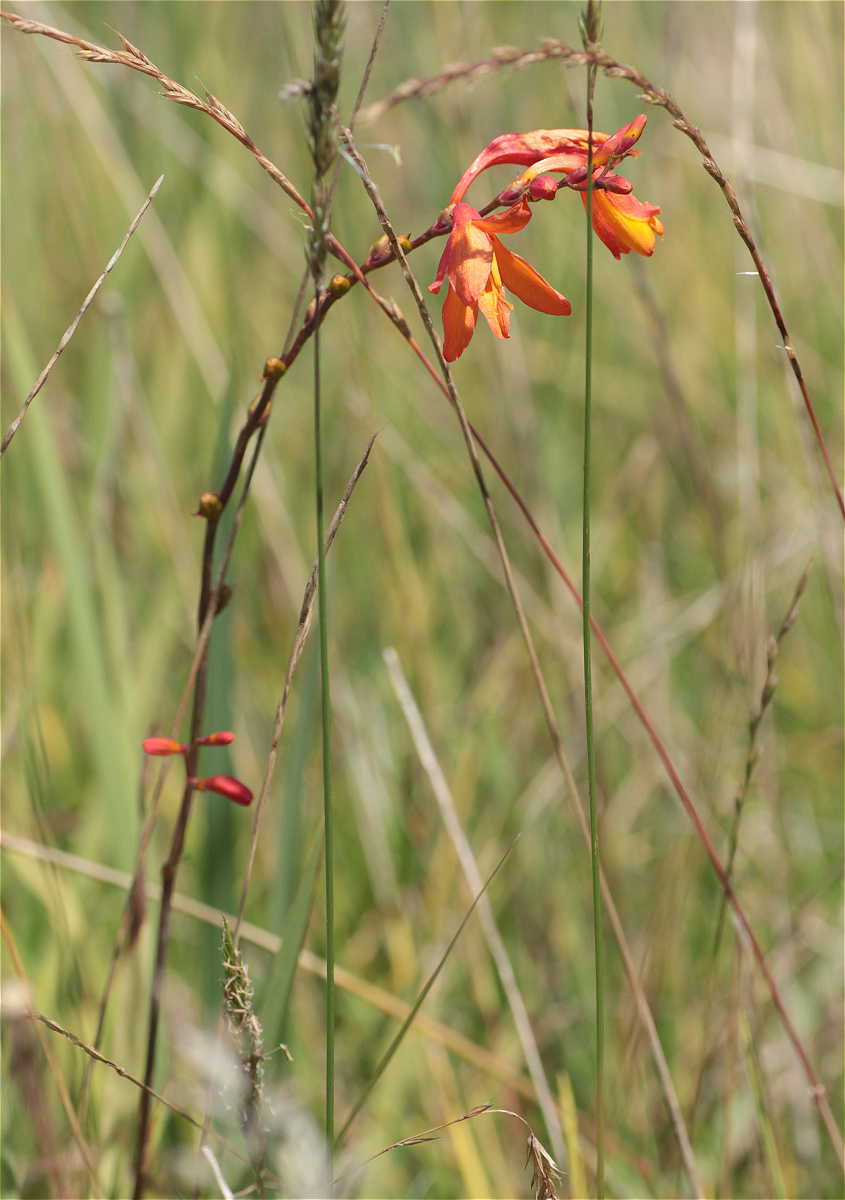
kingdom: Plantae
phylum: Tracheophyta
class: Liliopsida
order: Asparagales
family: Iridaceae
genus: Crocosmia
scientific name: Crocosmia crocosmiiflora
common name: Montbretia
